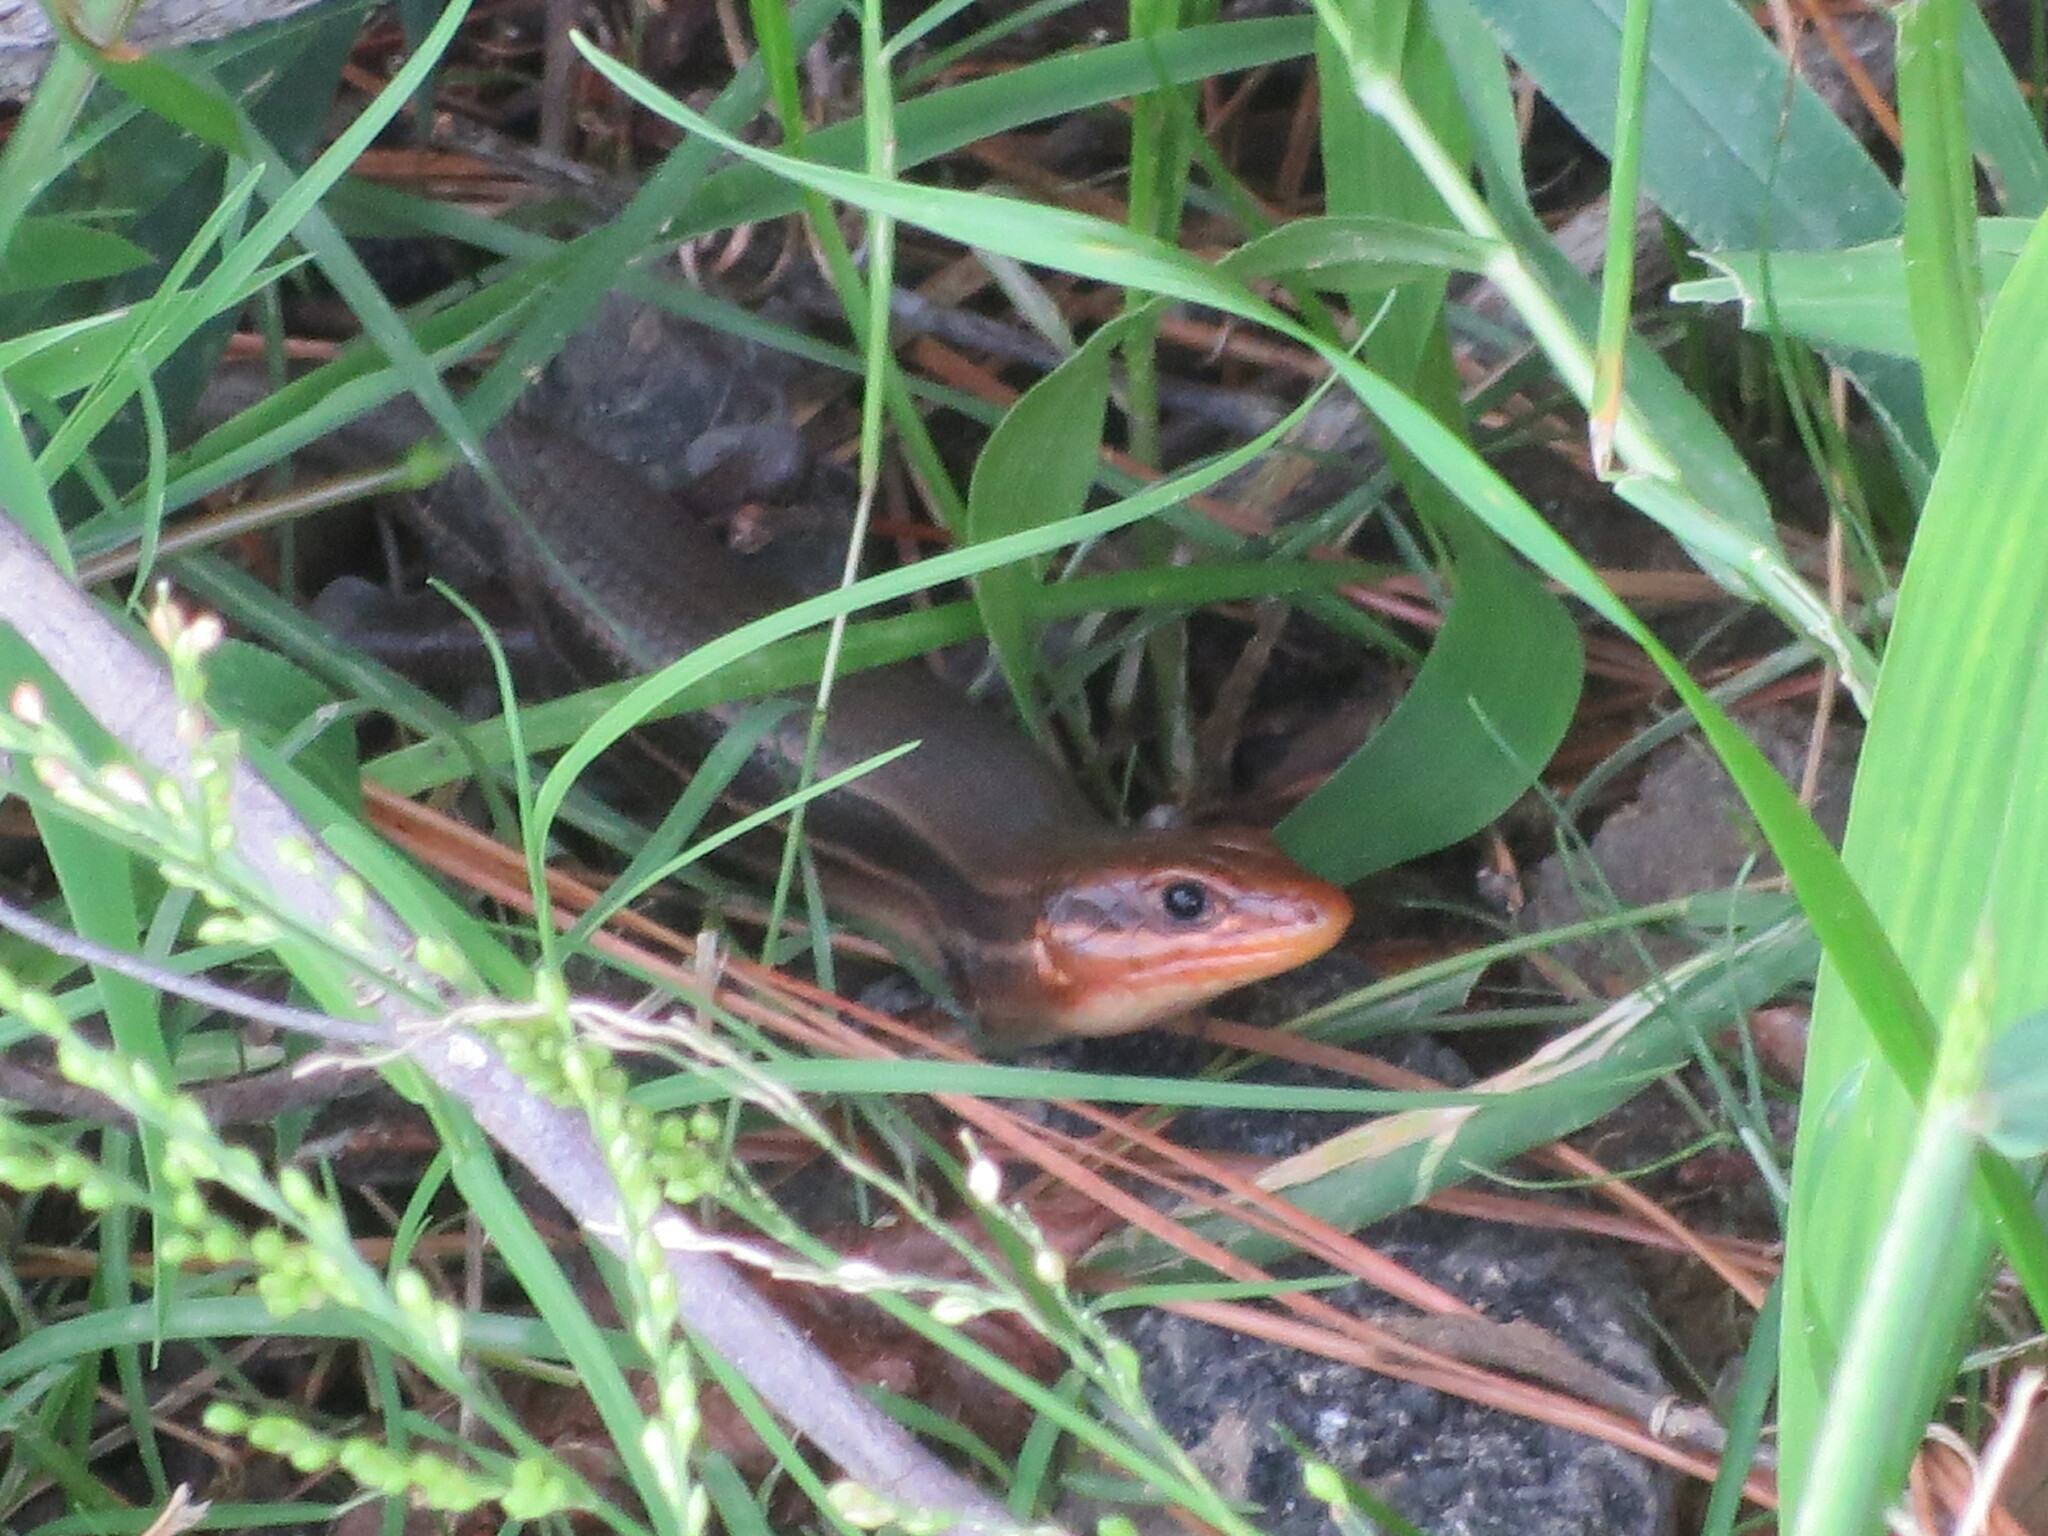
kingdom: Animalia
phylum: Chordata
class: Squamata
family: Scincidae
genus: Plestiodon
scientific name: Plestiodon laticeps
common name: Broadhead skink
